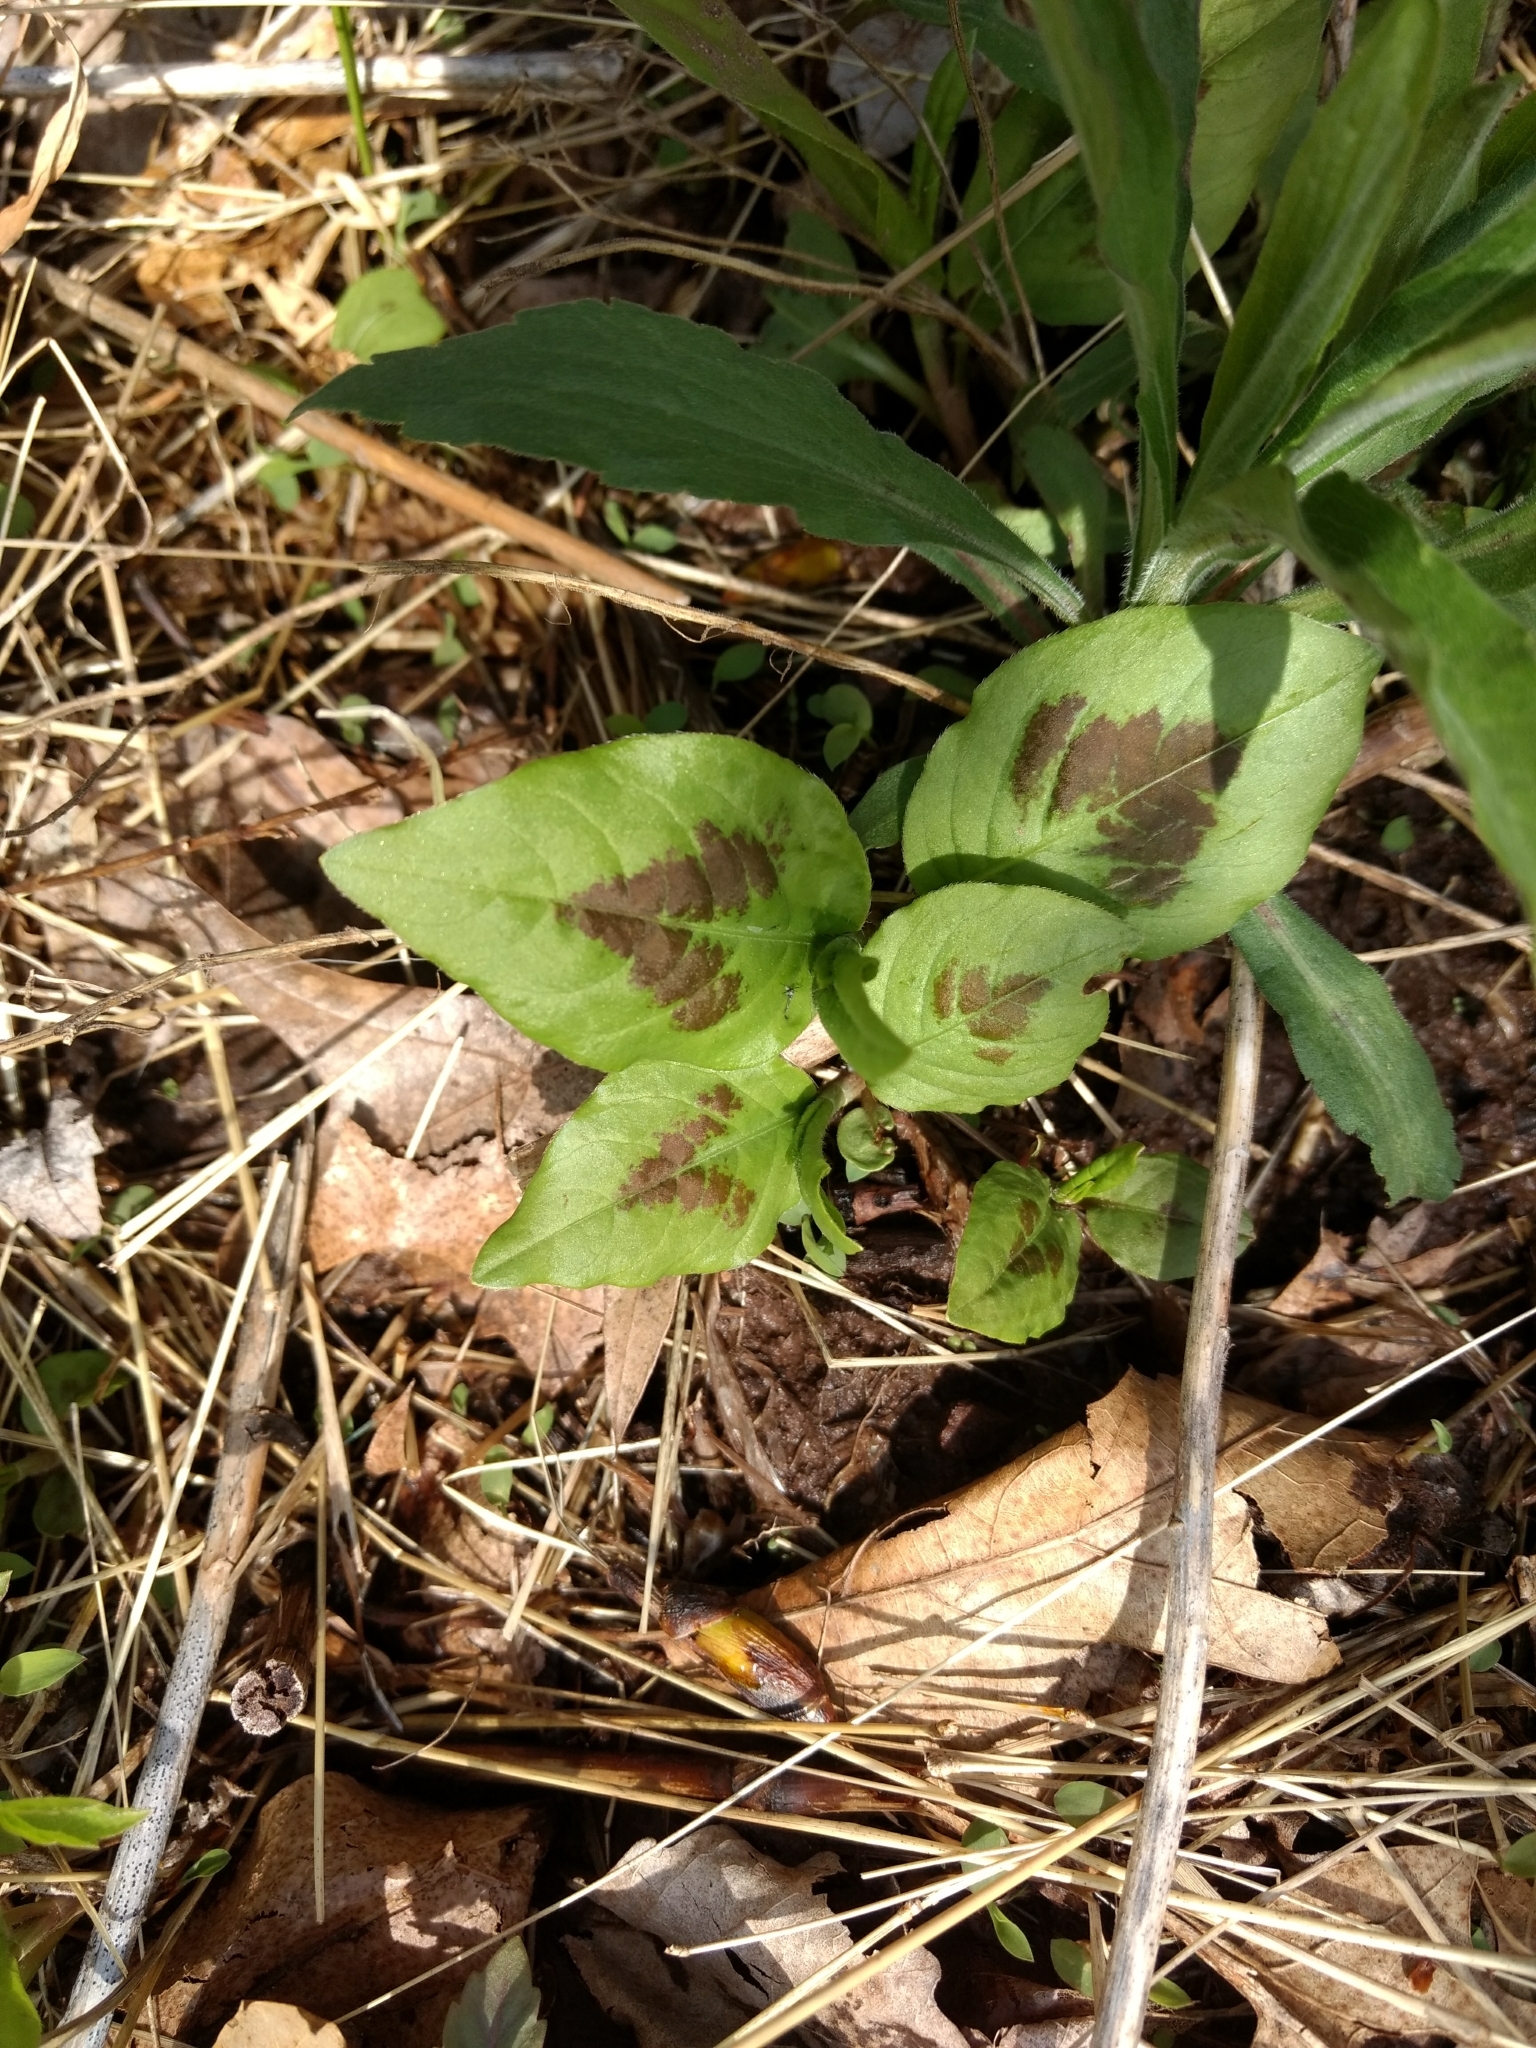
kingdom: Plantae
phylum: Tracheophyta
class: Magnoliopsida
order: Caryophyllales
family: Polygonaceae
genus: Persicaria
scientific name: Persicaria virginiana
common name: Jumpseed
